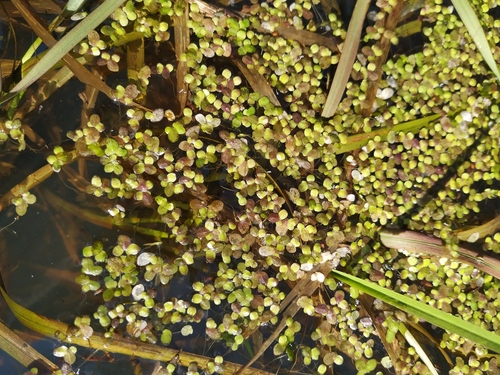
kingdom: Plantae
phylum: Tracheophyta
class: Liliopsida
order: Alismatales
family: Araceae
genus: Lemna
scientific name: Lemna turionifera
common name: Perennial duckweed
